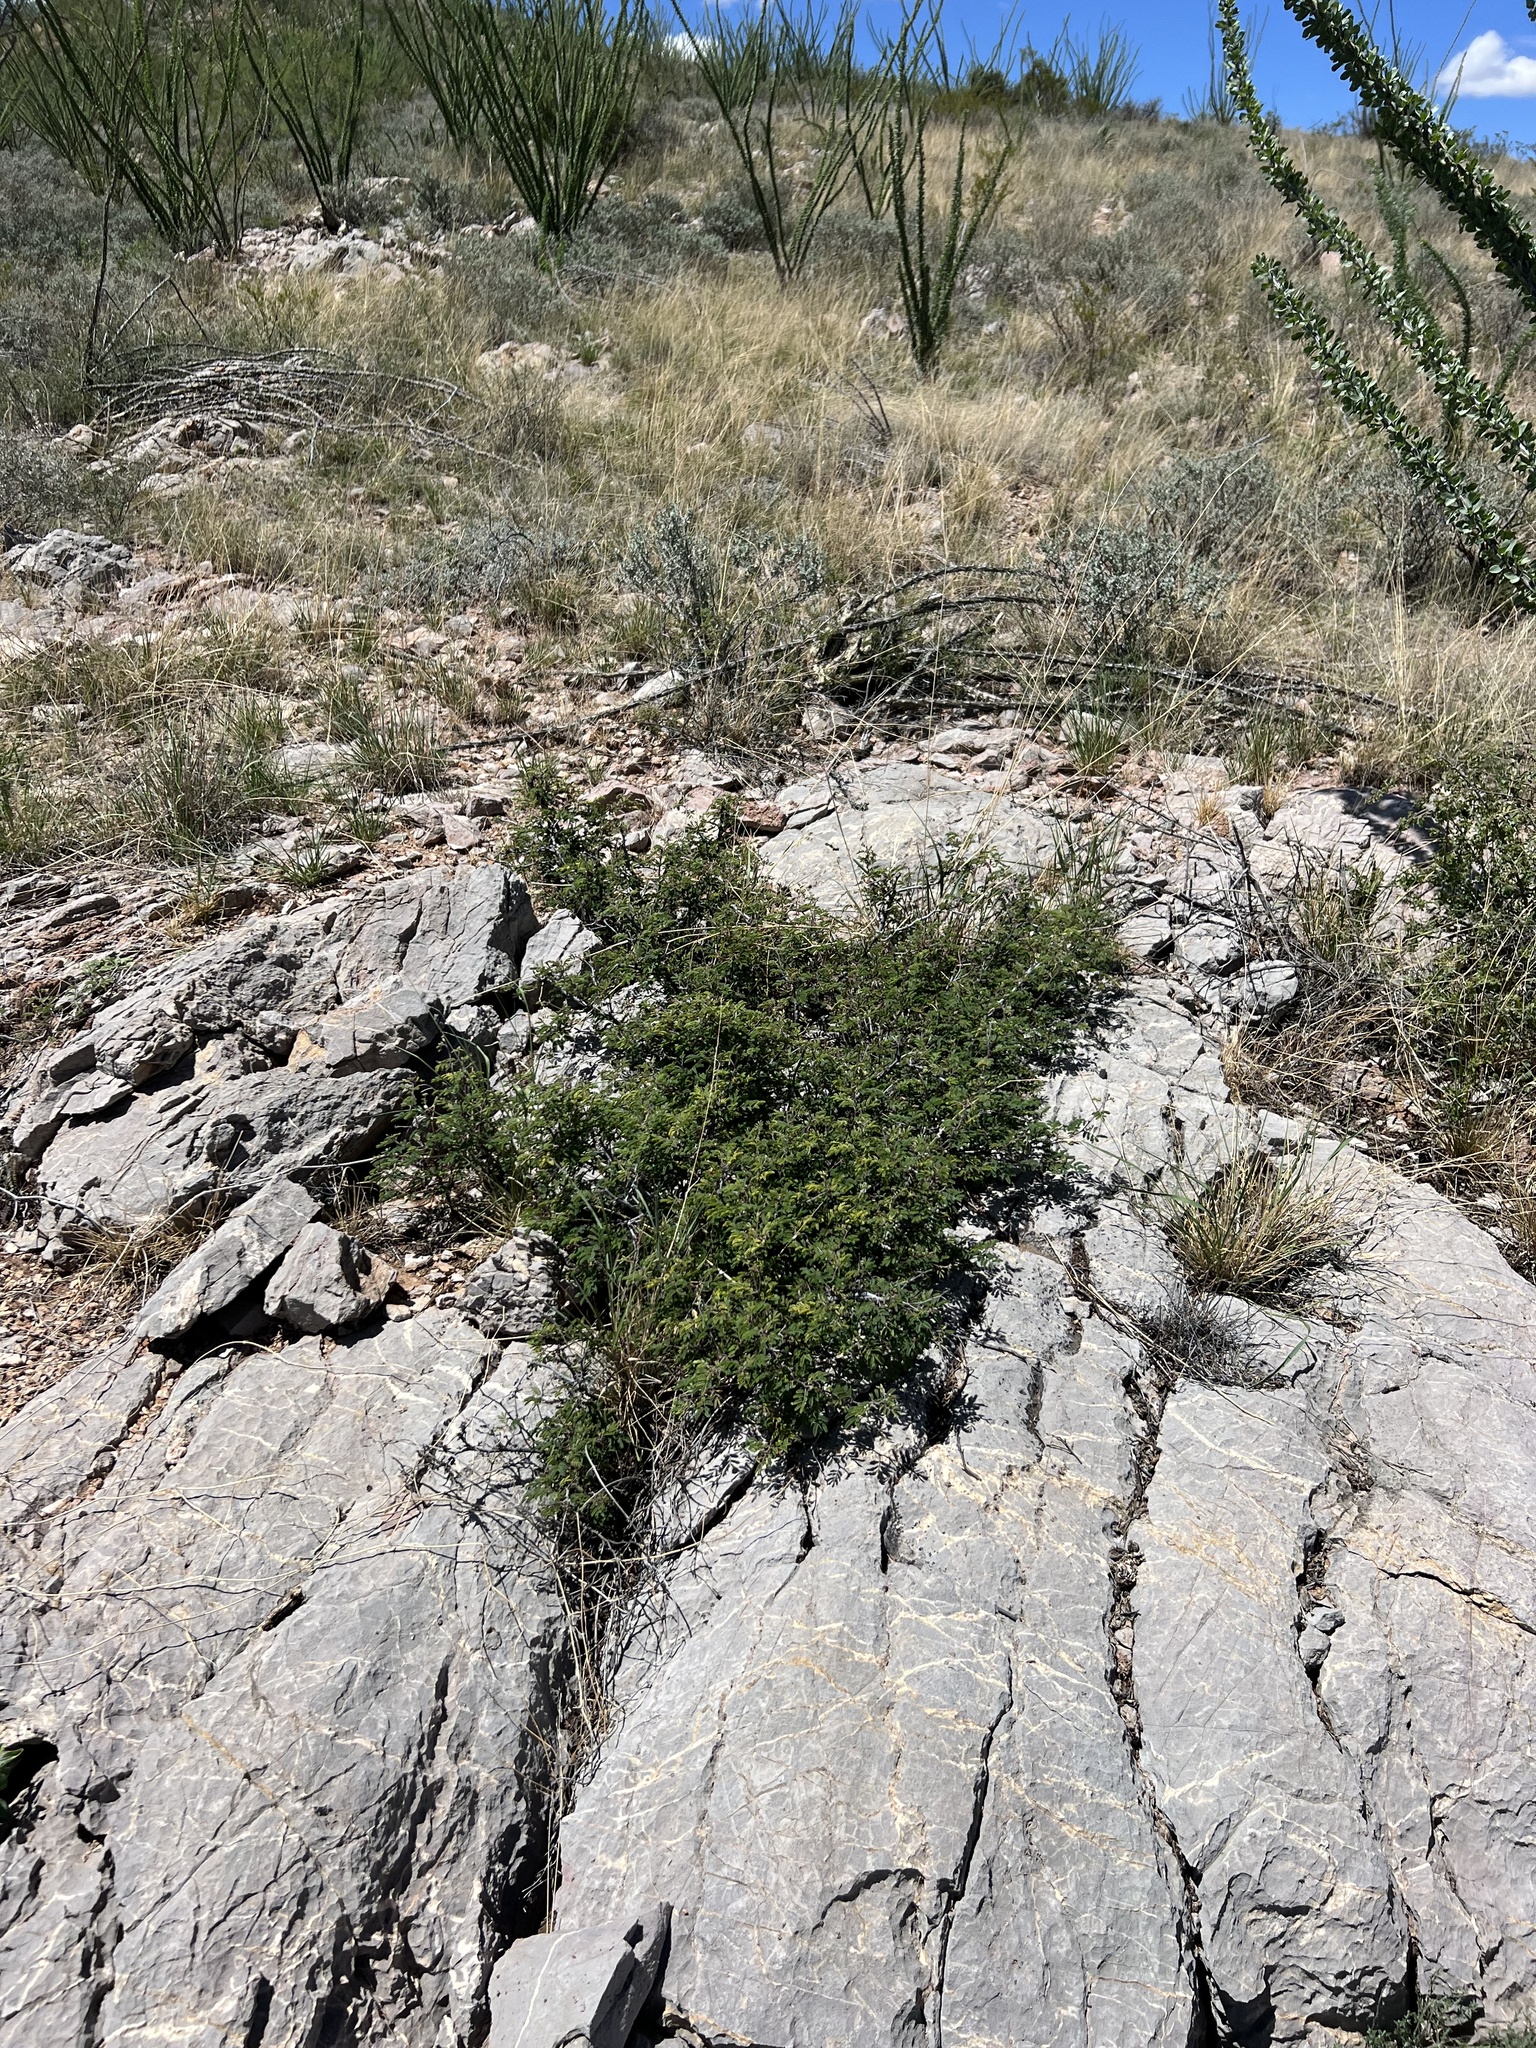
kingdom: Plantae
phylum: Tracheophyta
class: Magnoliopsida
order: Fabales
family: Fabaceae
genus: Calliandra
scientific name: Calliandra eriophylla
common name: Fairy-duster
